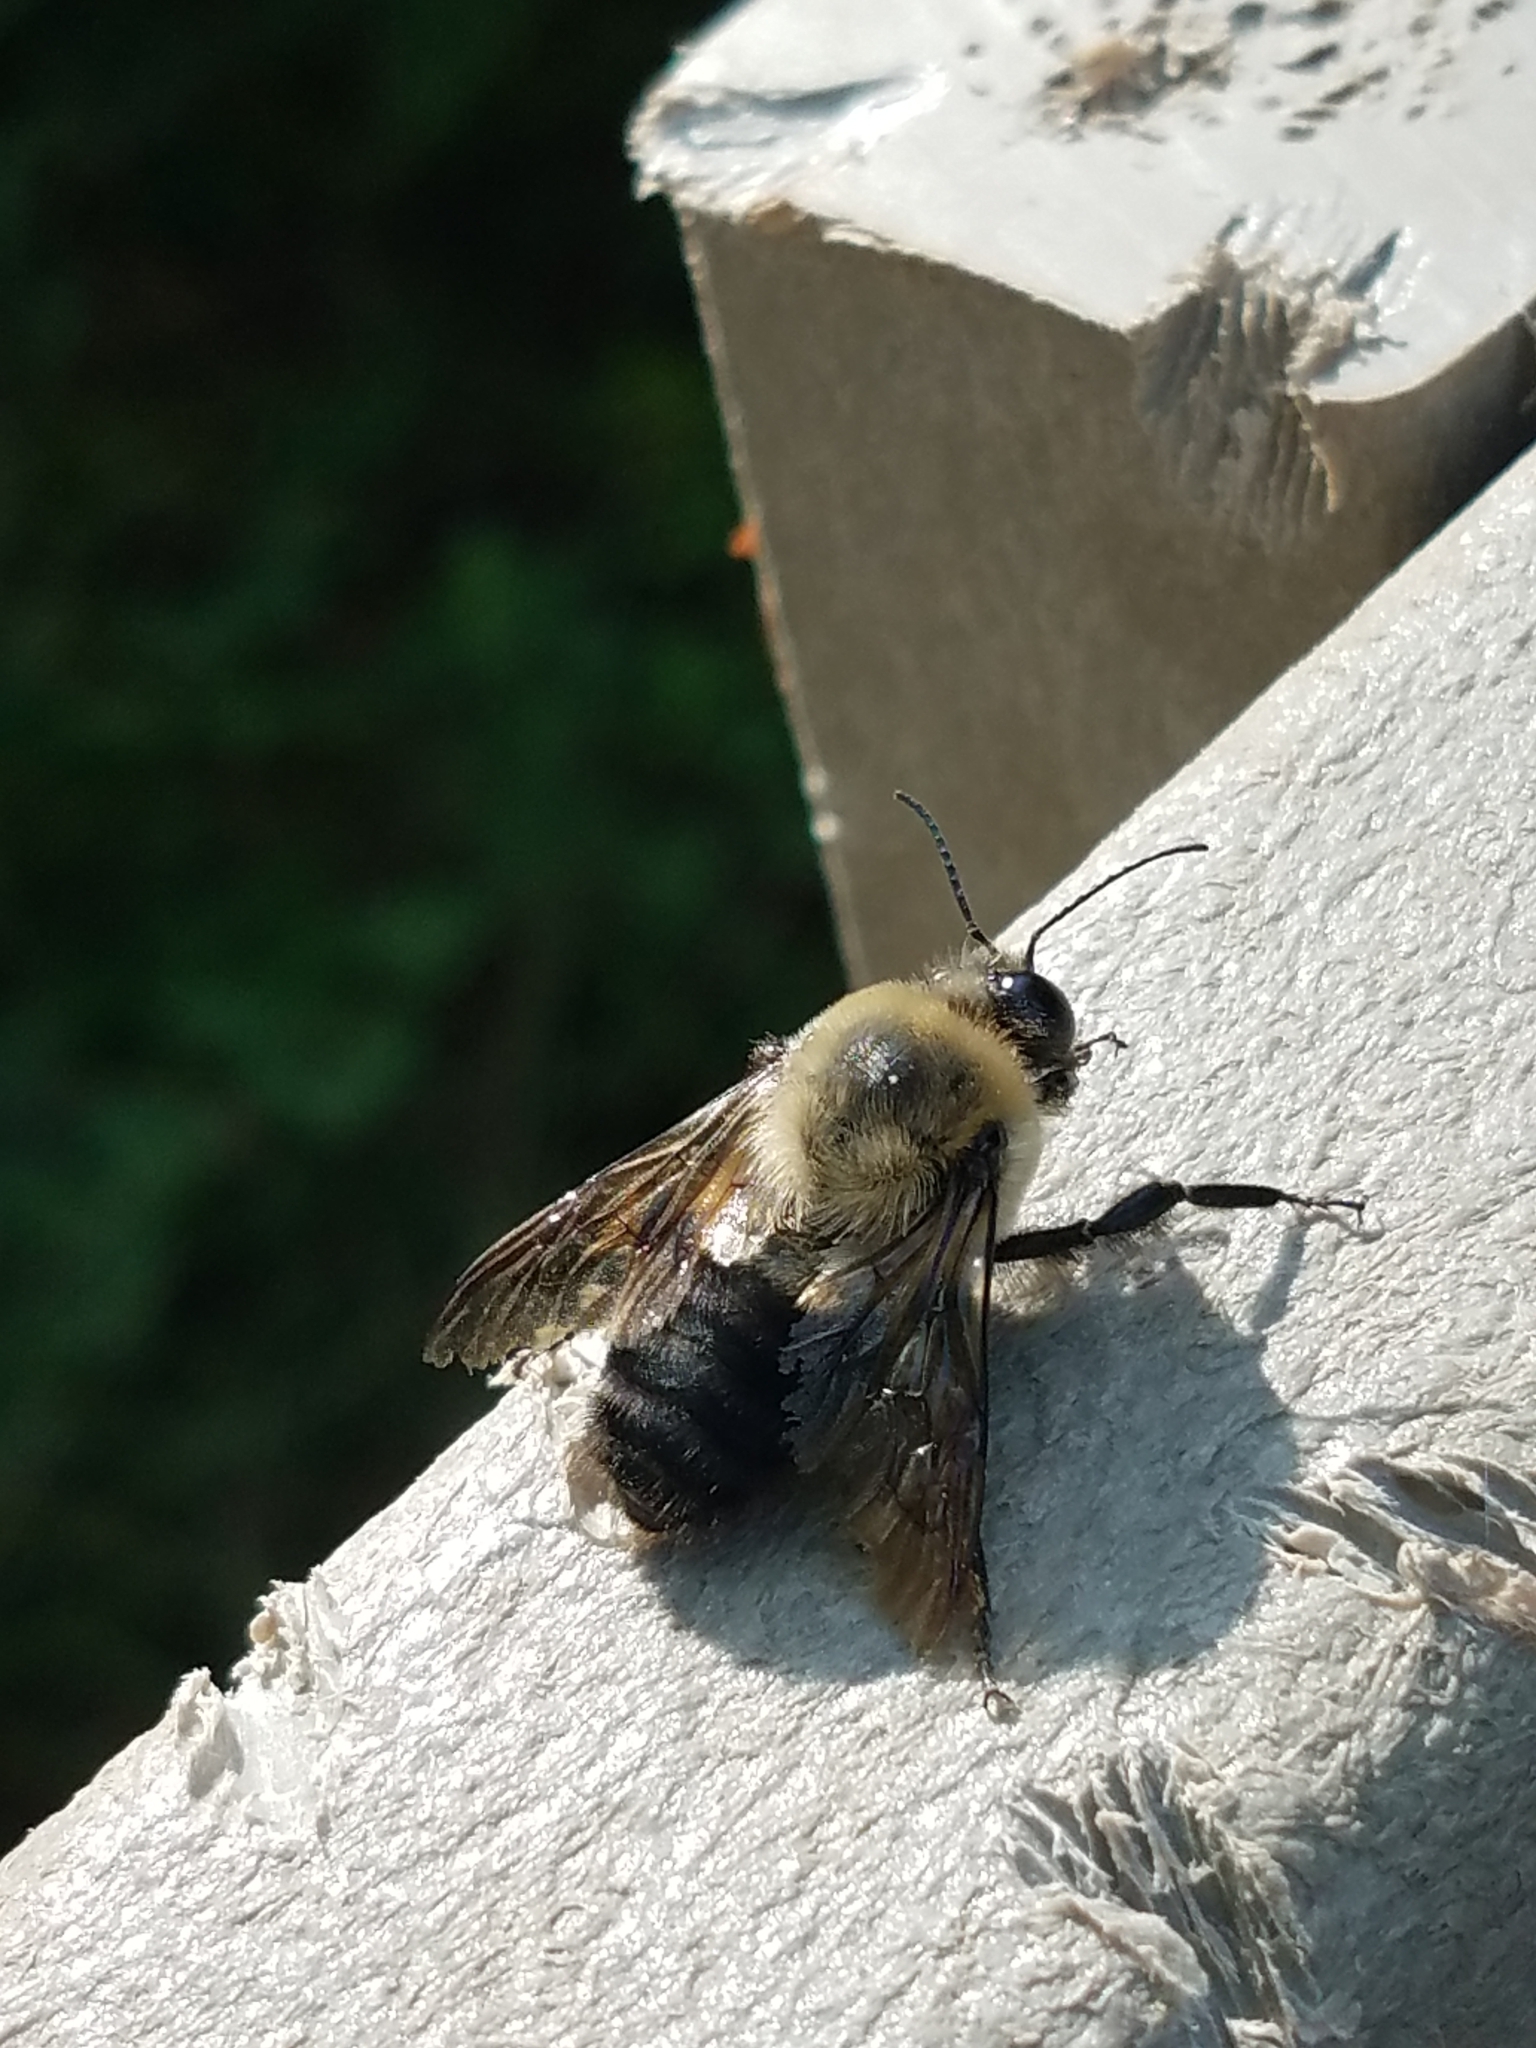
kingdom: Animalia
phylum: Arthropoda
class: Insecta
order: Hymenoptera
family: Apidae
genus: Bombus
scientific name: Bombus griseocollis
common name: Brown-belted bumble bee
